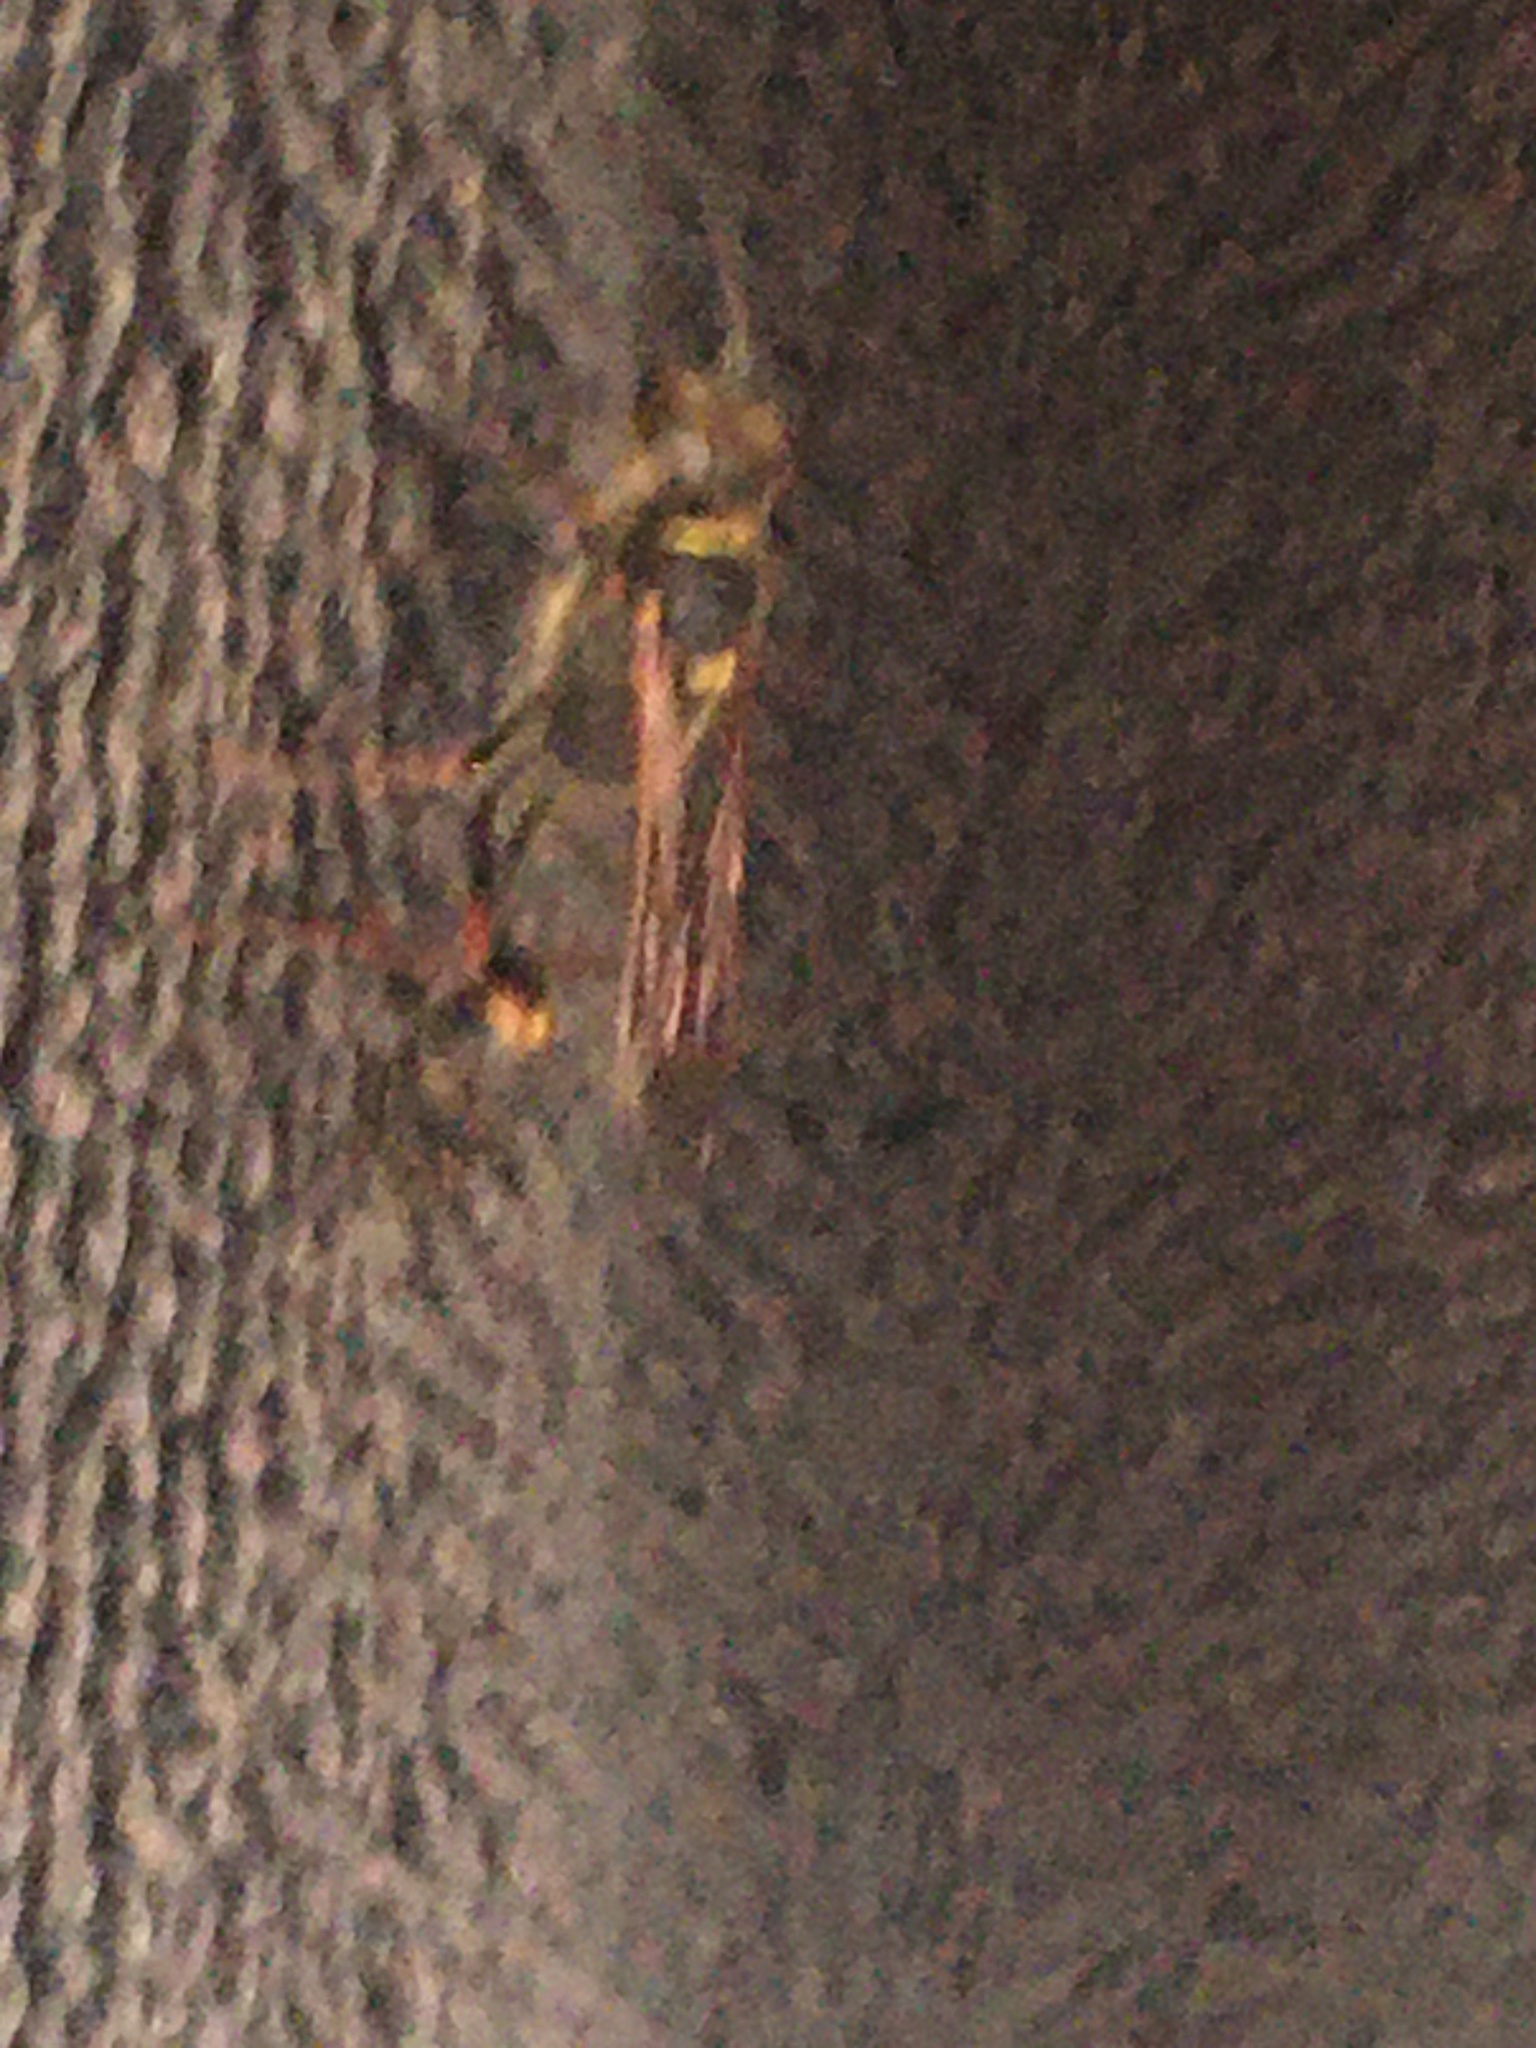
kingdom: Animalia
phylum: Arthropoda
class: Insecta
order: Hymenoptera
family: Sphecidae
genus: Sceliphron
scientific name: Sceliphron curvatum
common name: Pèlopèe
